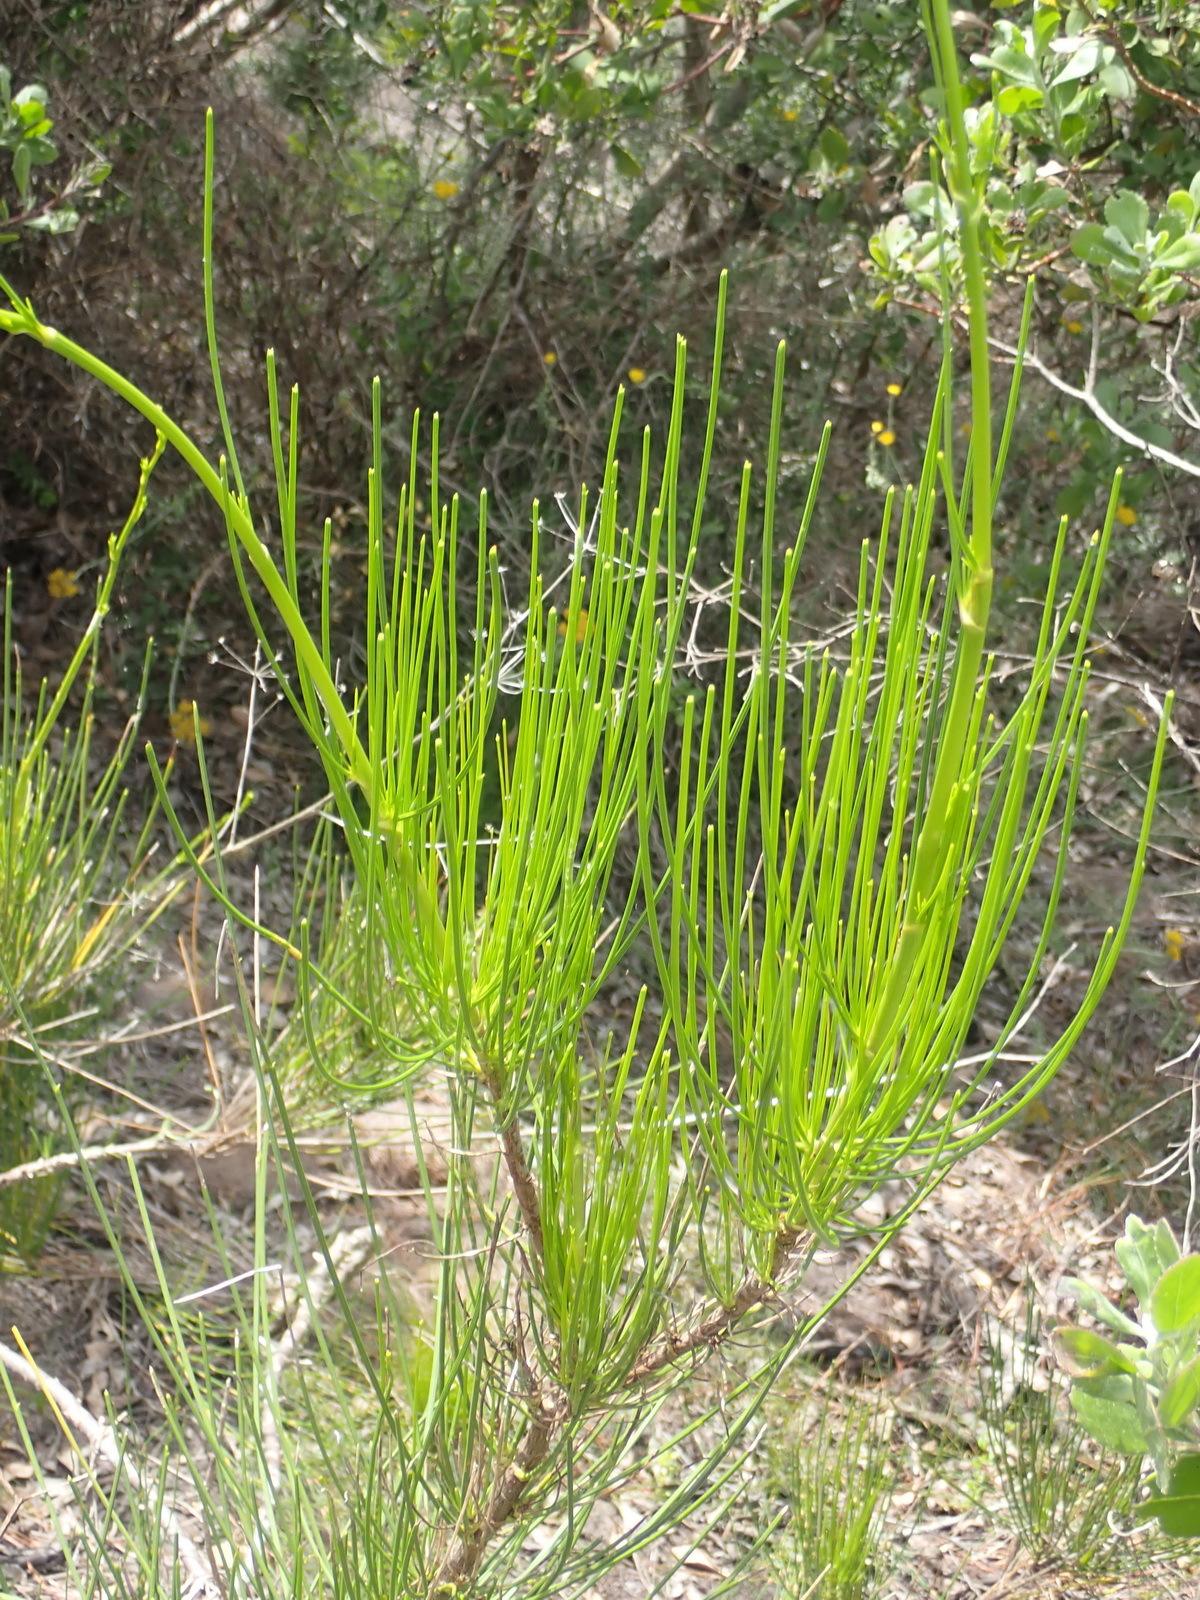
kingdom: Plantae
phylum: Tracheophyta
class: Magnoliopsida
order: Apiales
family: Apiaceae
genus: Anginon
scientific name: Anginon difforme
